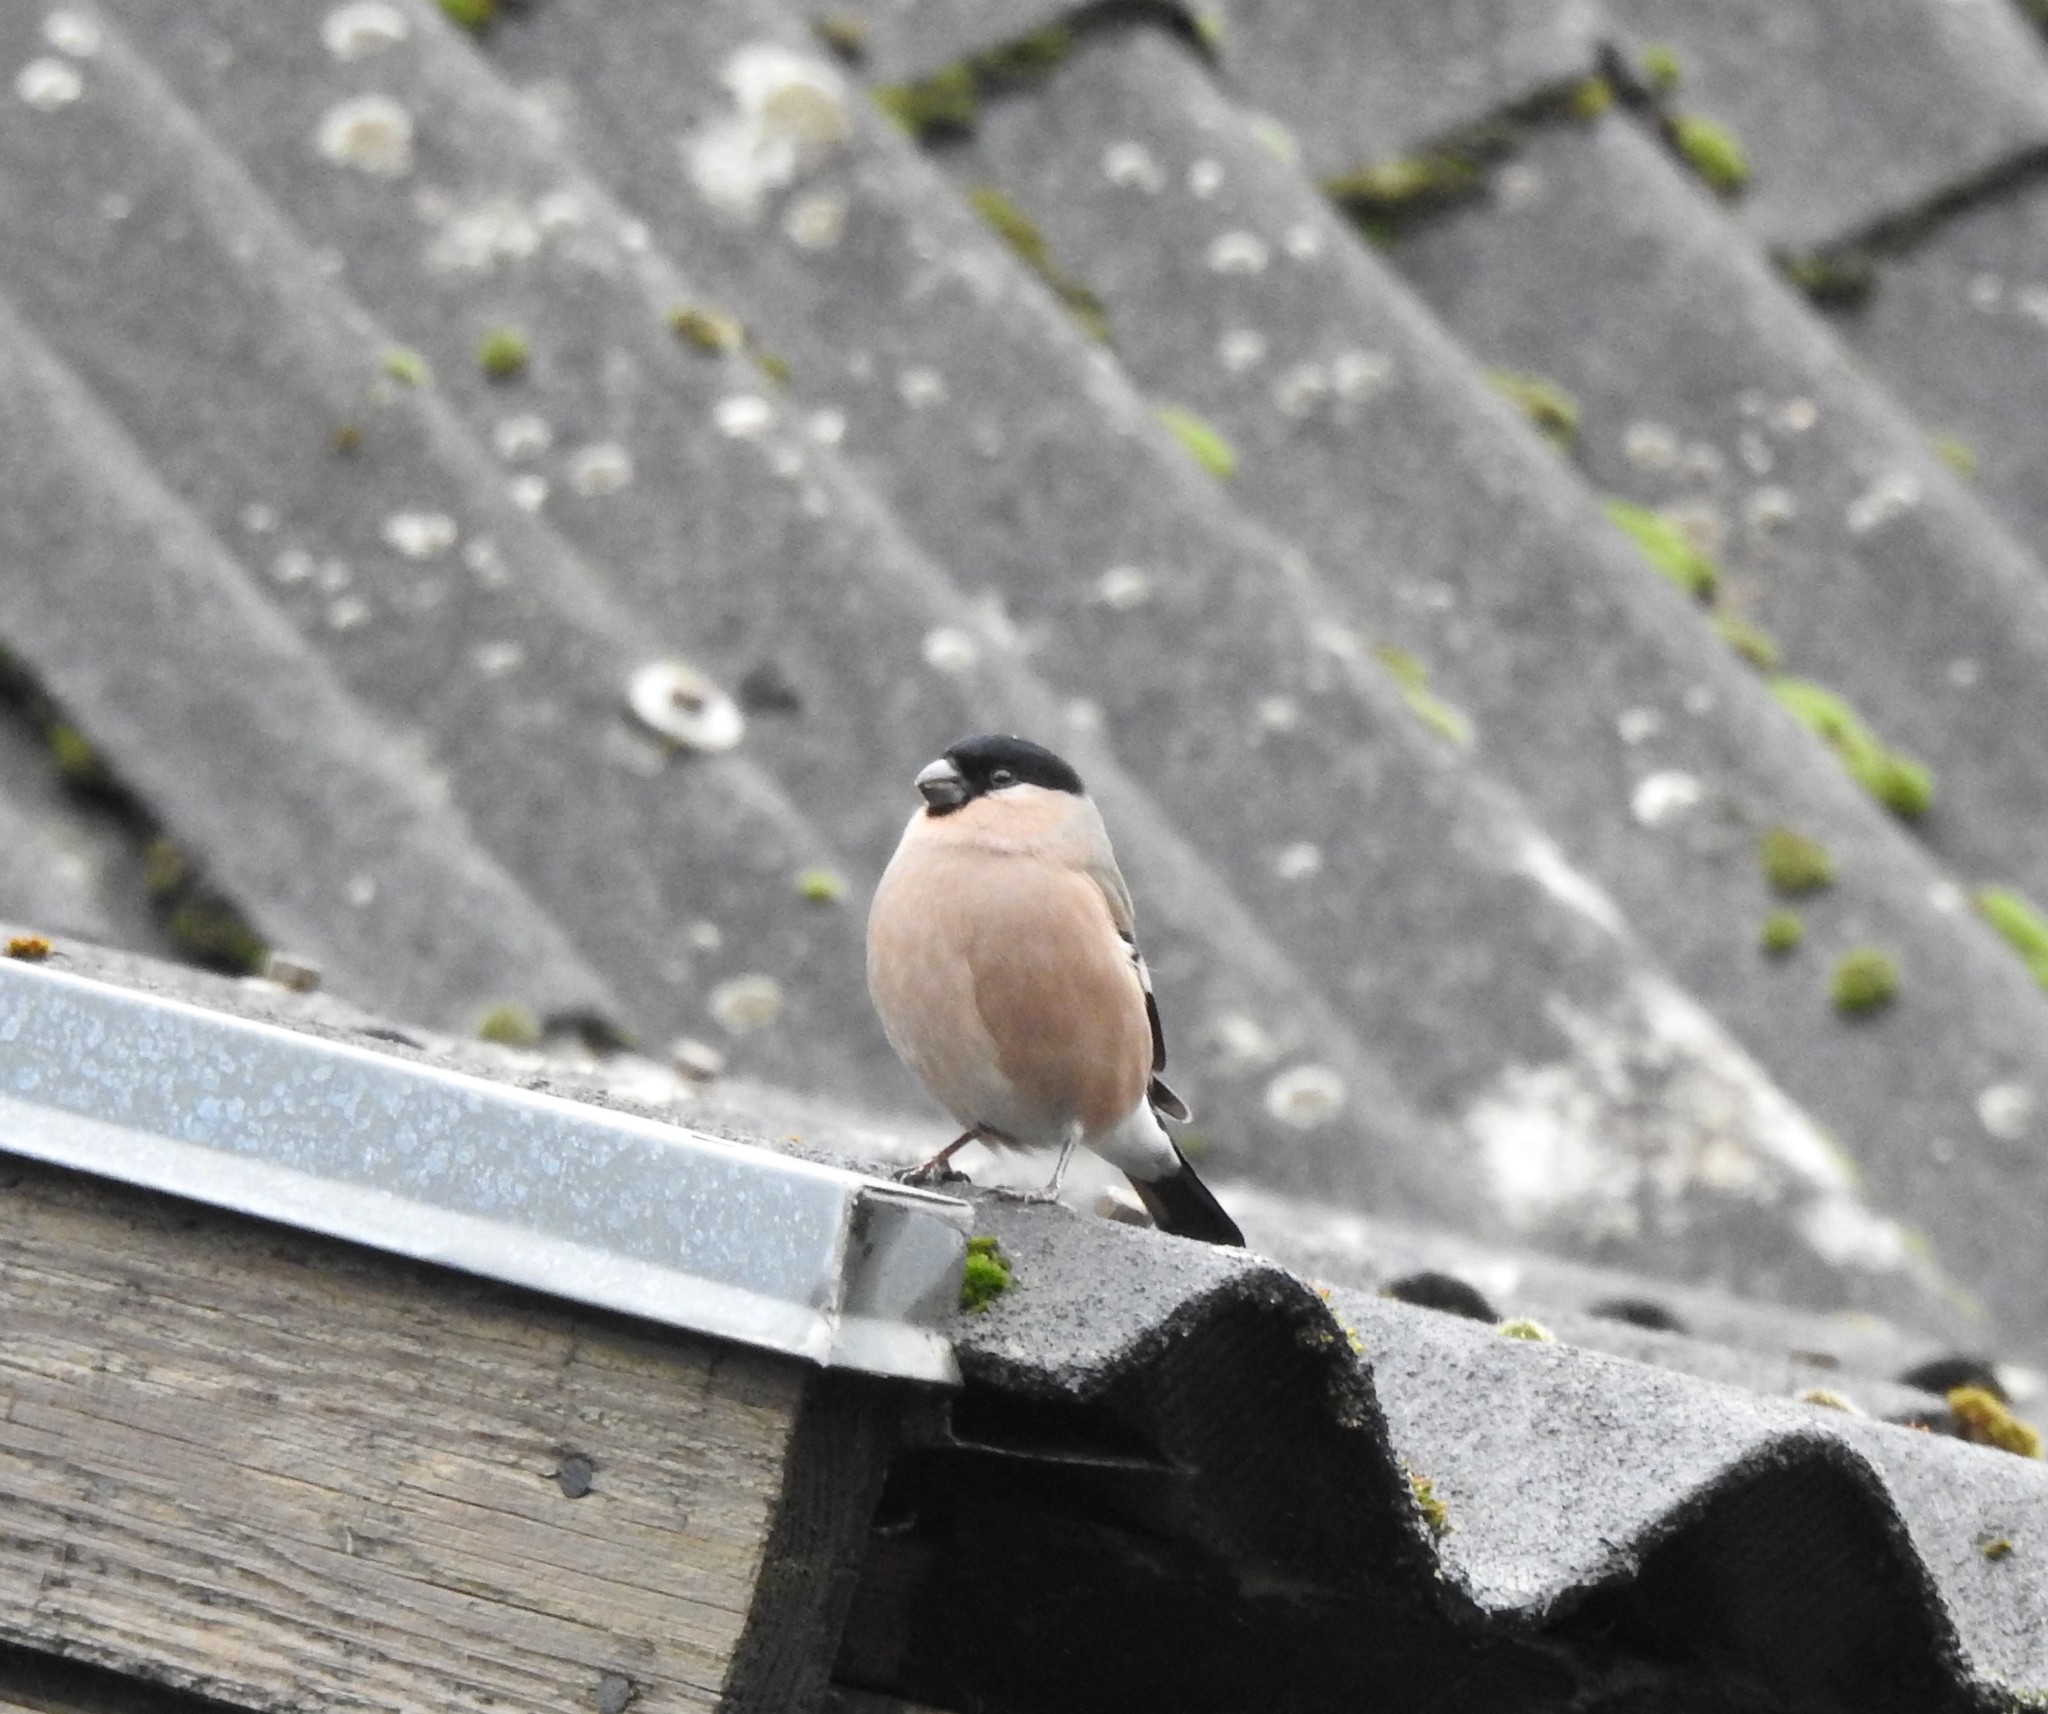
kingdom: Animalia
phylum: Chordata
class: Aves
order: Passeriformes
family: Fringillidae
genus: Pyrrhula
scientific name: Pyrrhula pyrrhula
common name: Eurasian bullfinch
